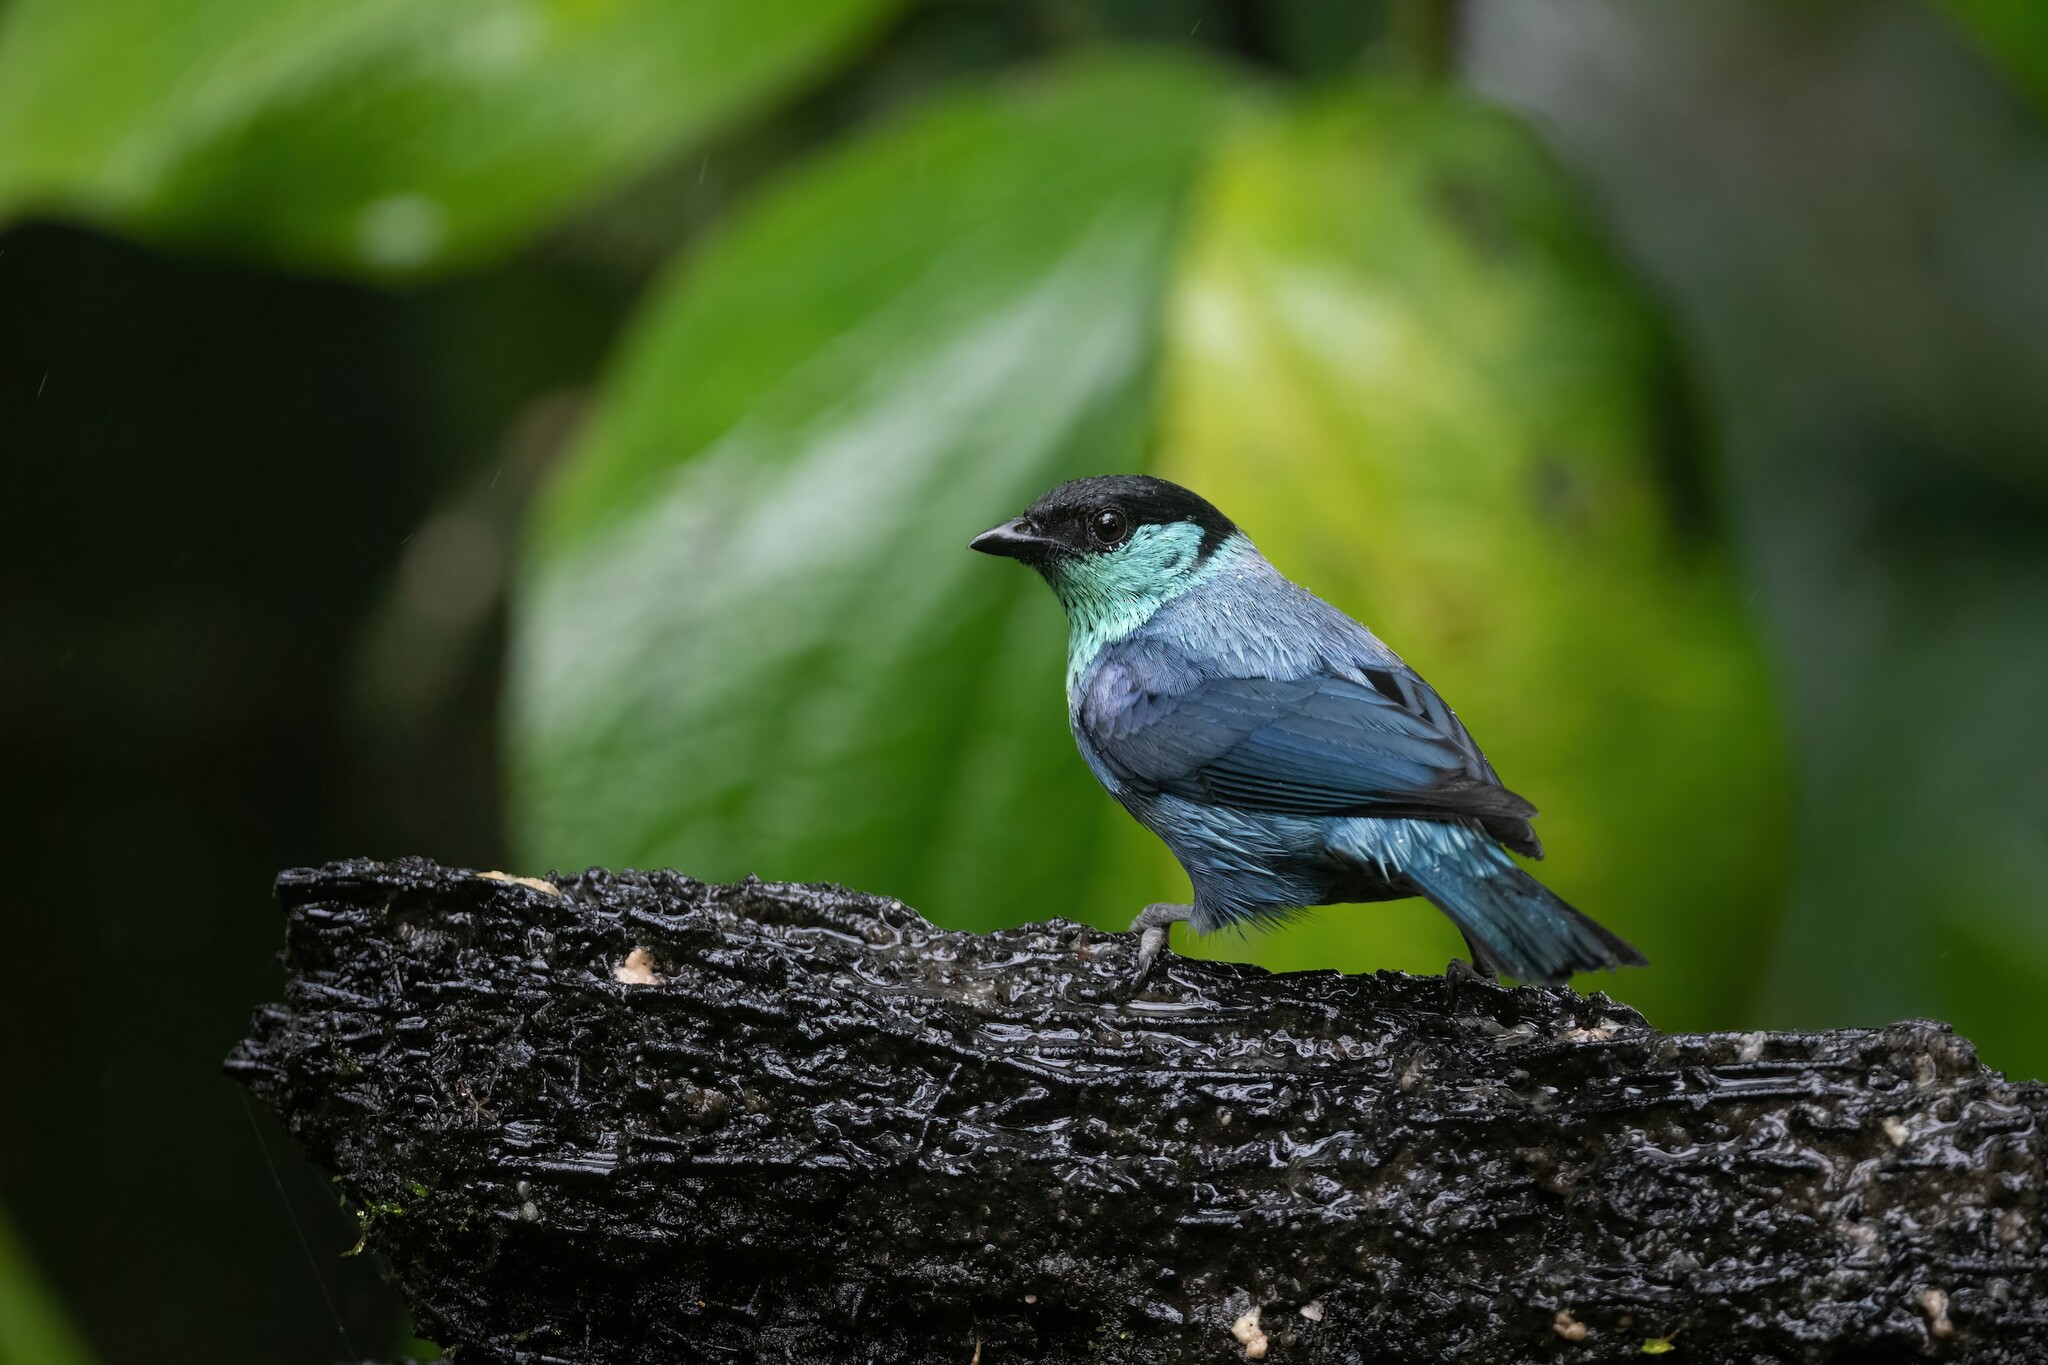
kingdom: Animalia
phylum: Chordata
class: Aves
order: Passeriformes
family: Thraupidae
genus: Stilpnia
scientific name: Stilpnia heinei
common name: Black-capped tanager
